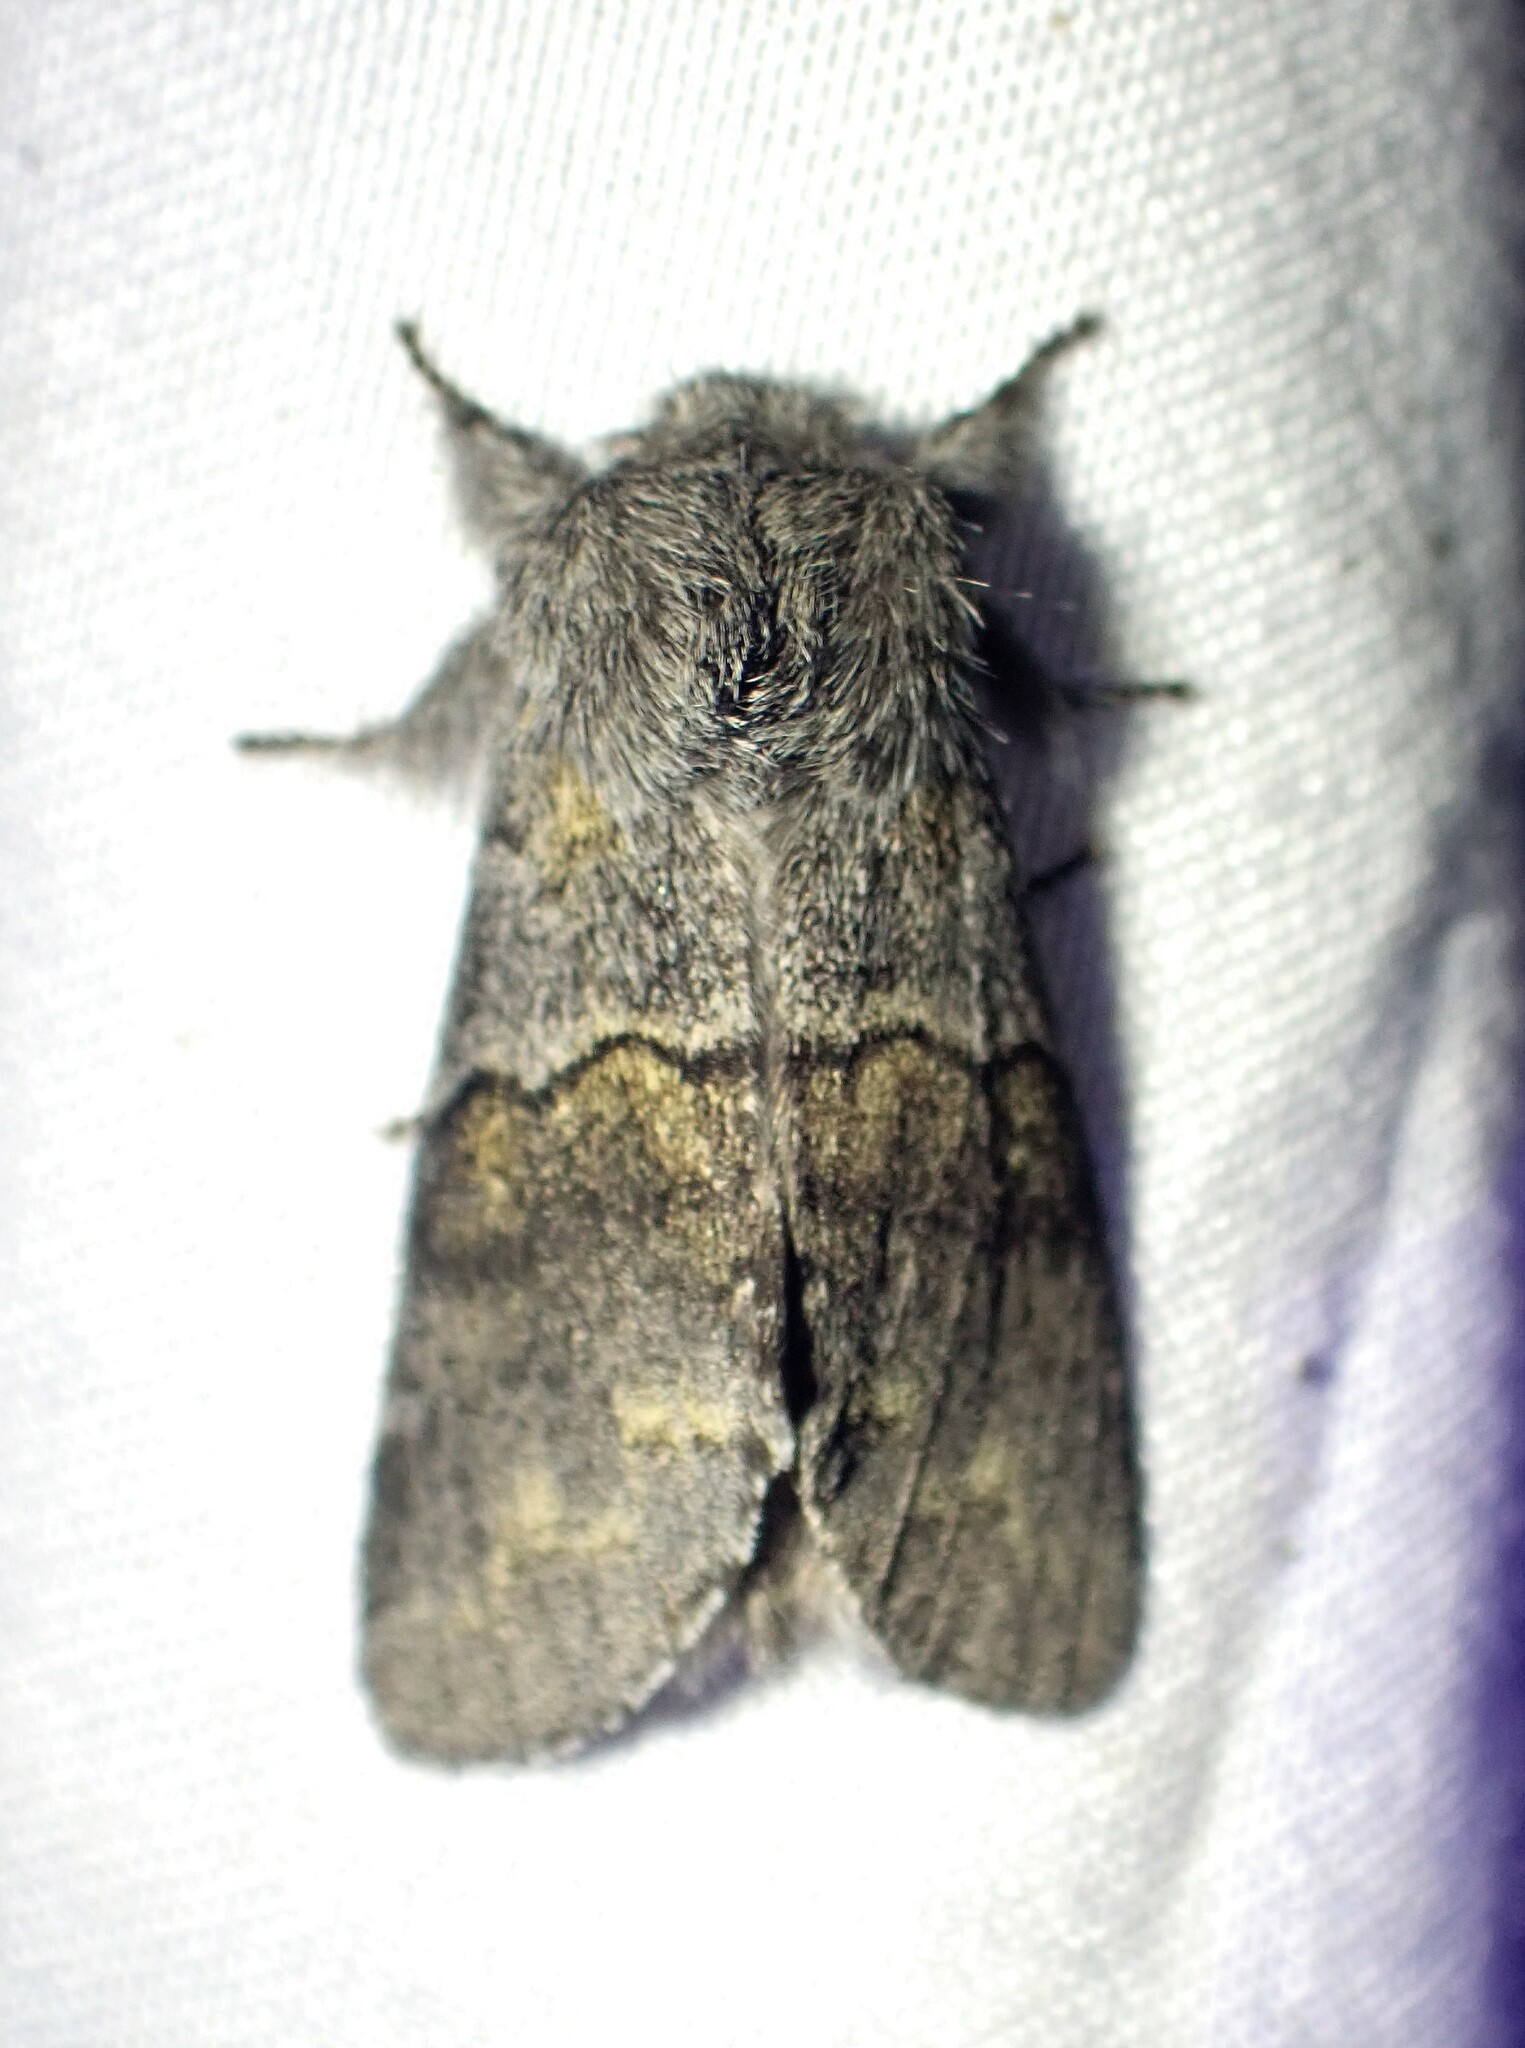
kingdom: Animalia
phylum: Arthropoda
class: Insecta
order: Lepidoptera
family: Notodontidae
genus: Gluphisia
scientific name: Gluphisia lintneri
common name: Lintner's gluphisia moth
